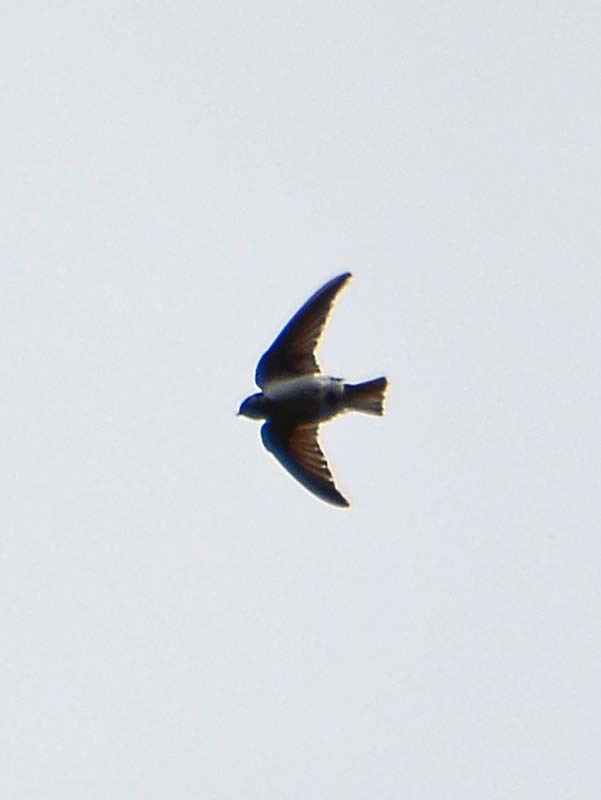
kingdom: Animalia
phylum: Chordata
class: Aves
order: Passeriformes
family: Hirundinidae
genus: Tachycineta
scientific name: Tachycineta thalassina
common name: Violet-green swallow
